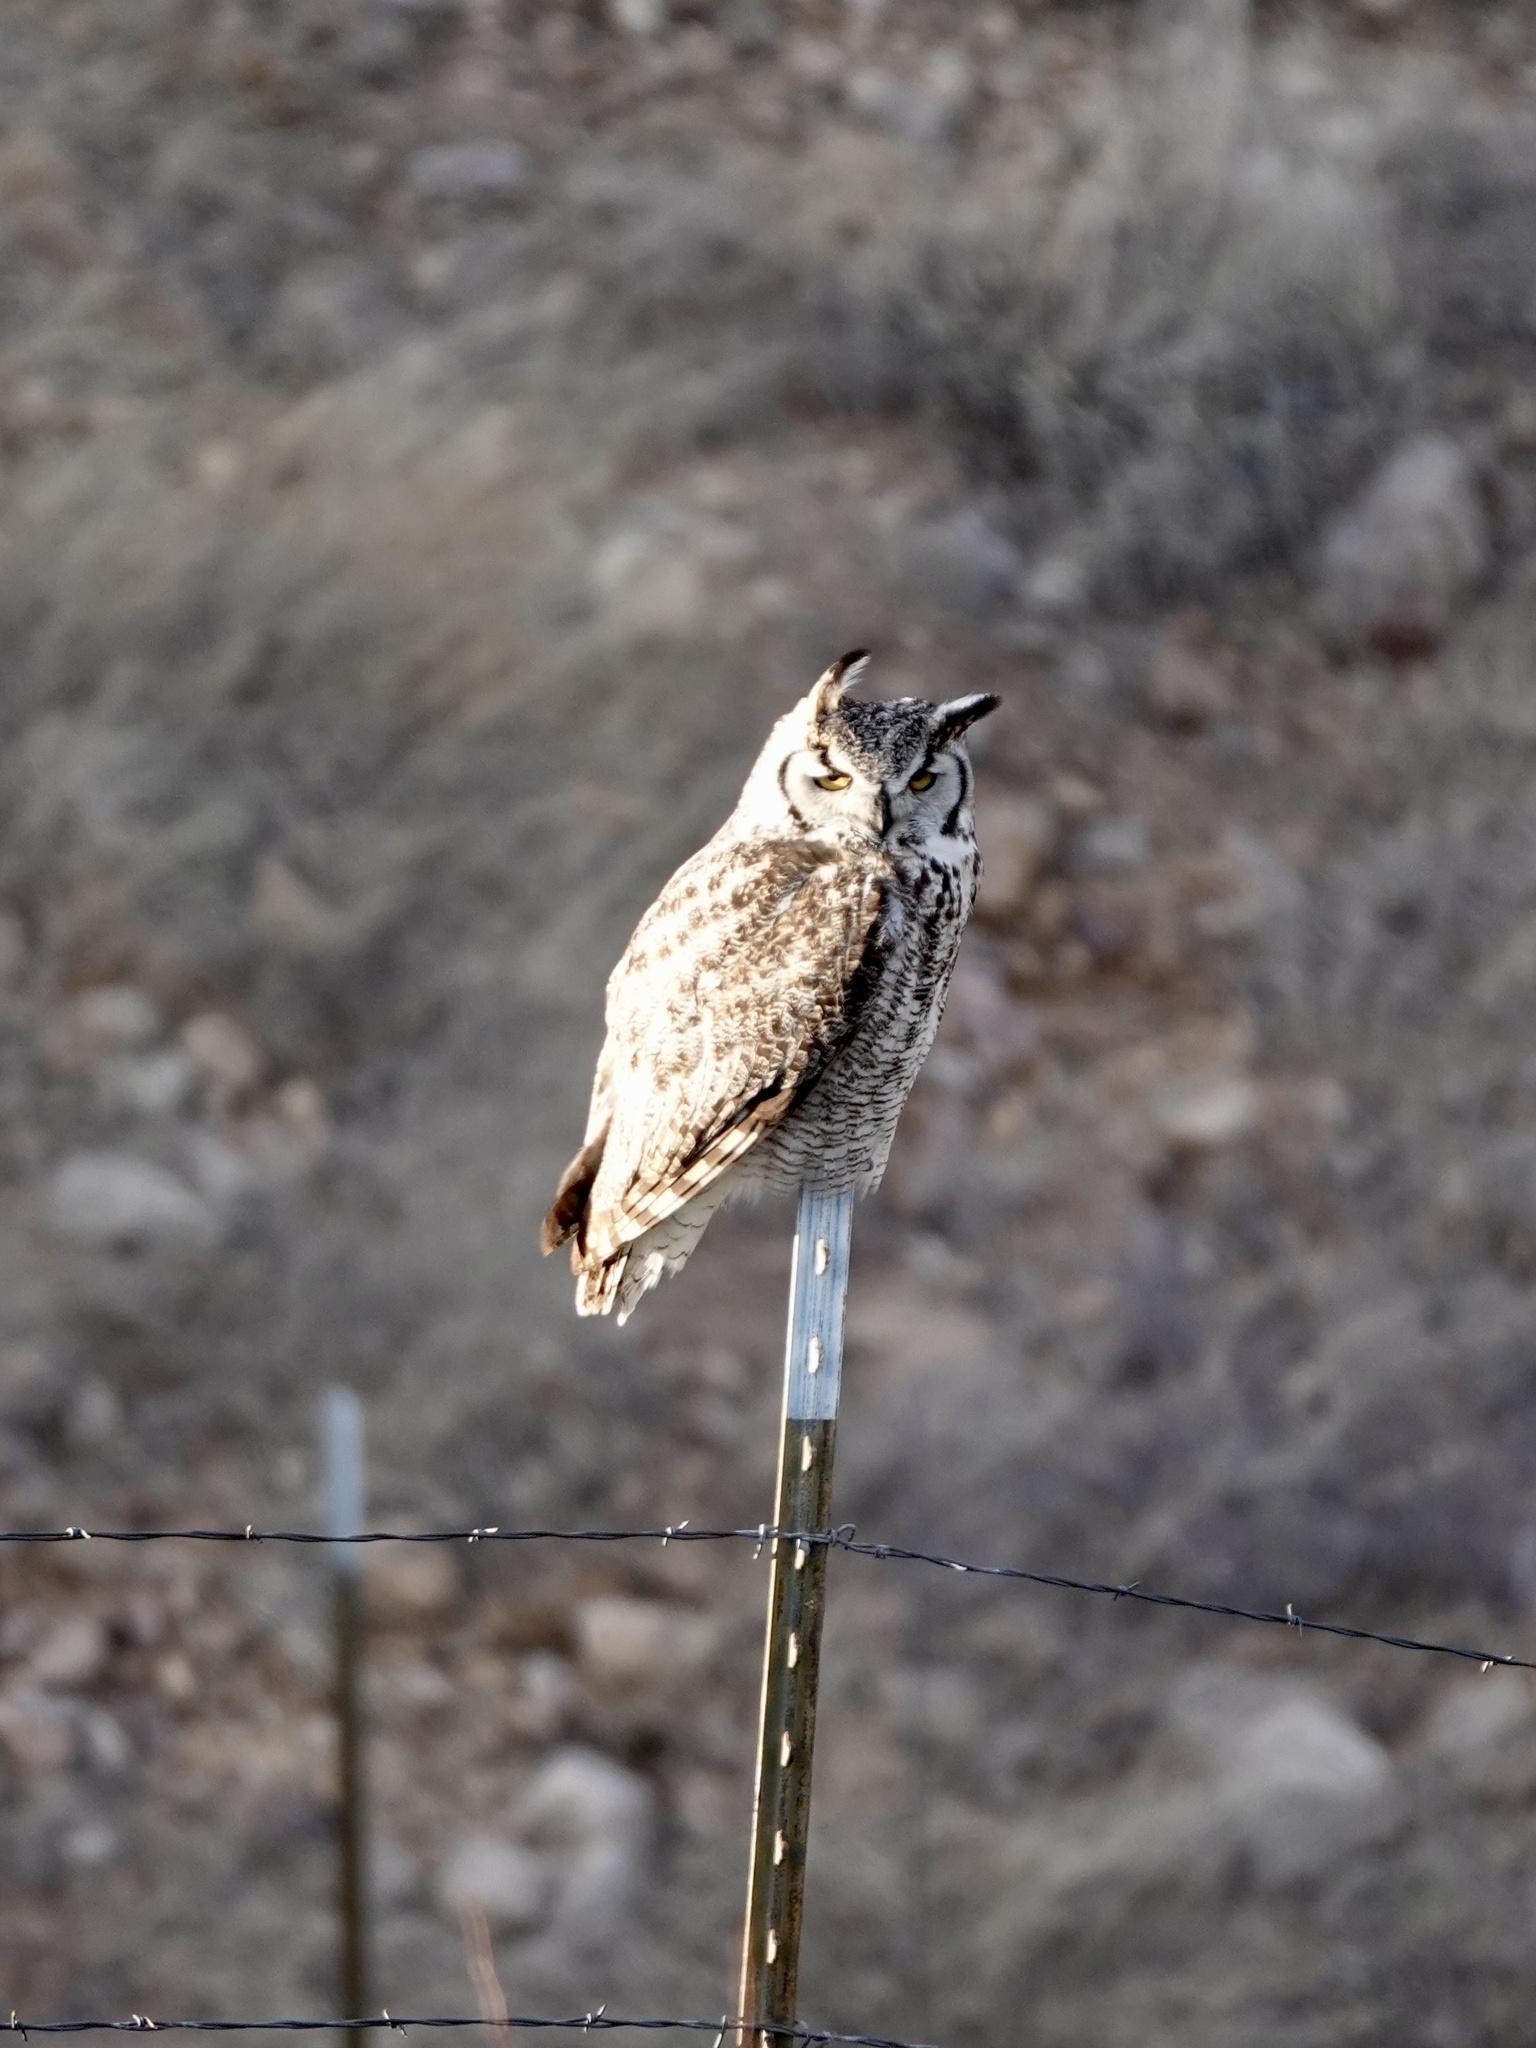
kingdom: Animalia
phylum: Chordata
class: Aves
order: Strigiformes
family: Strigidae
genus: Bubo
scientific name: Bubo virginianus
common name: Great horned owl
